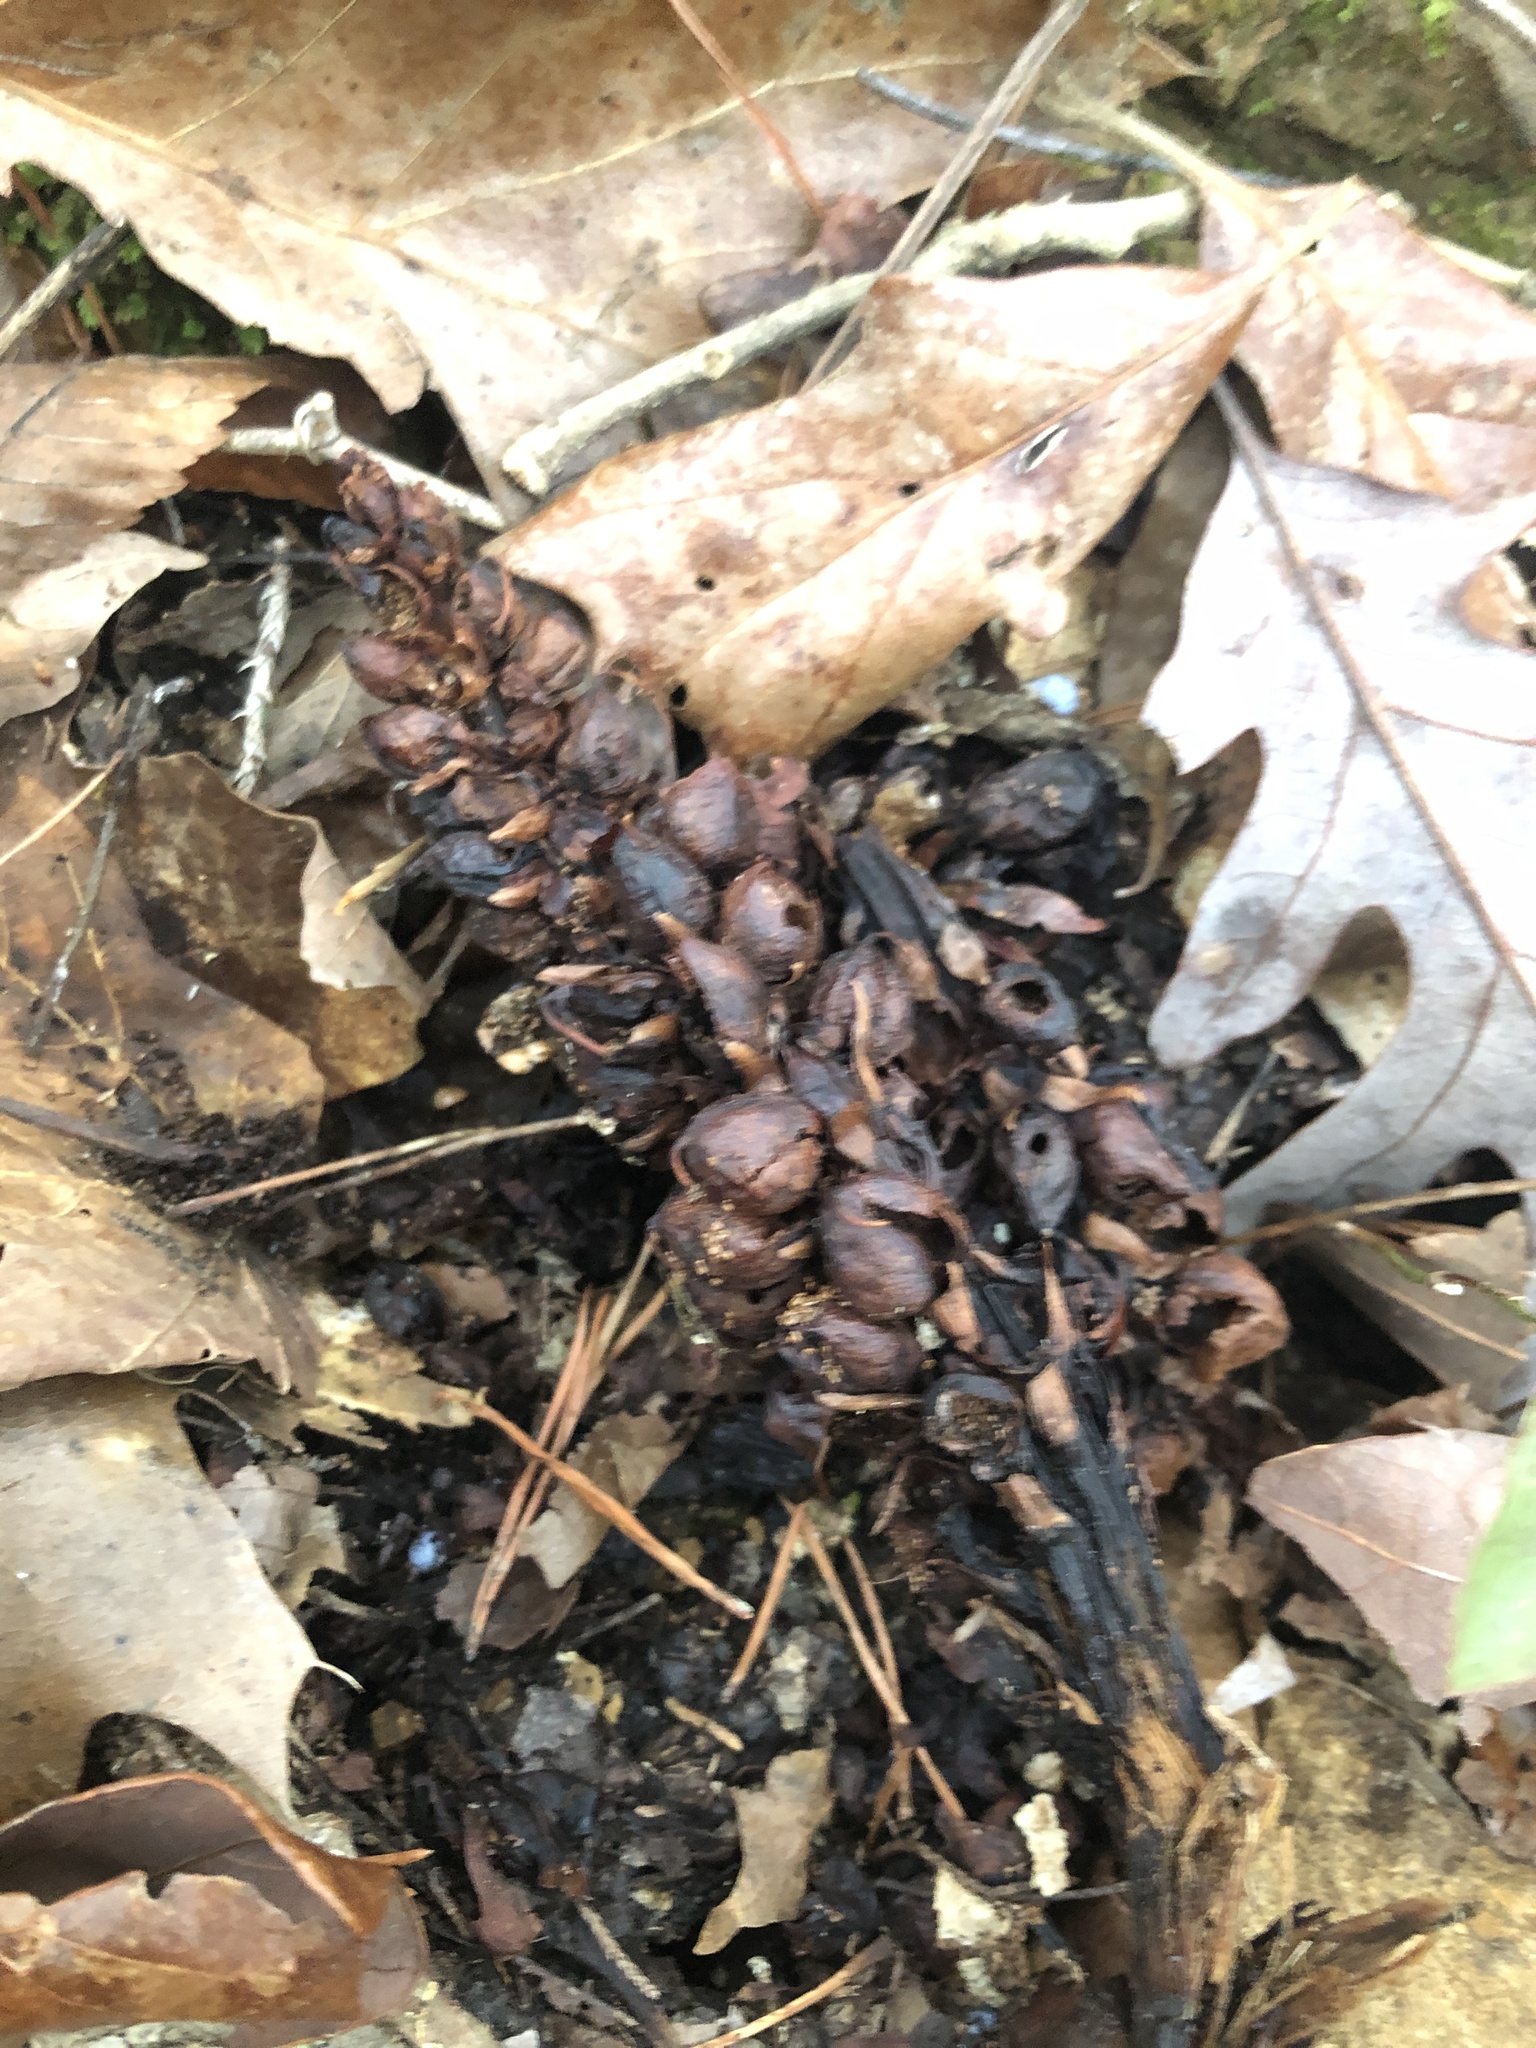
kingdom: Plantae
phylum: Tracheophyta
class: Magnoliopsida
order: Lamiales
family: Orobanchaceae
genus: Conopholis
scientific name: Conopholis americana
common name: American cancer-root
